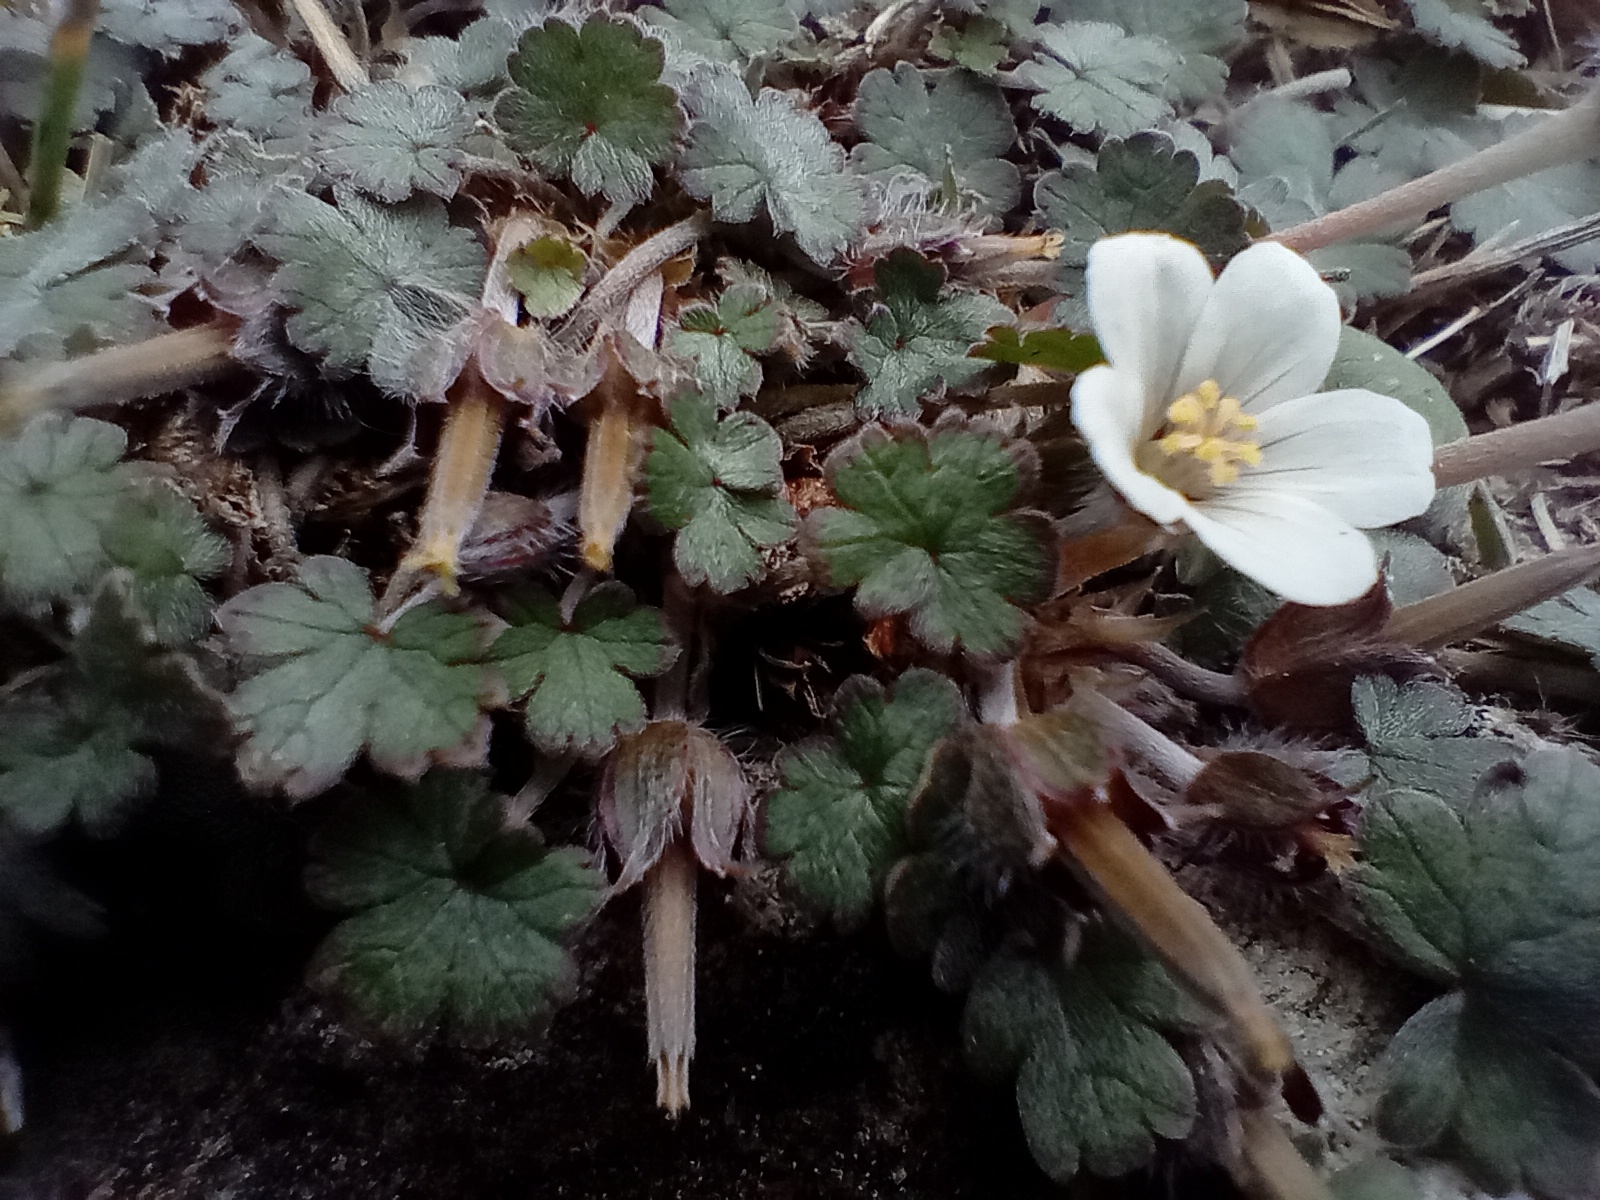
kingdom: Plantae
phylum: Tracheophyta
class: Magnoliopsida
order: Geraniales
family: Geraniaceae
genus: Geranium
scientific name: Geranium socolateum
